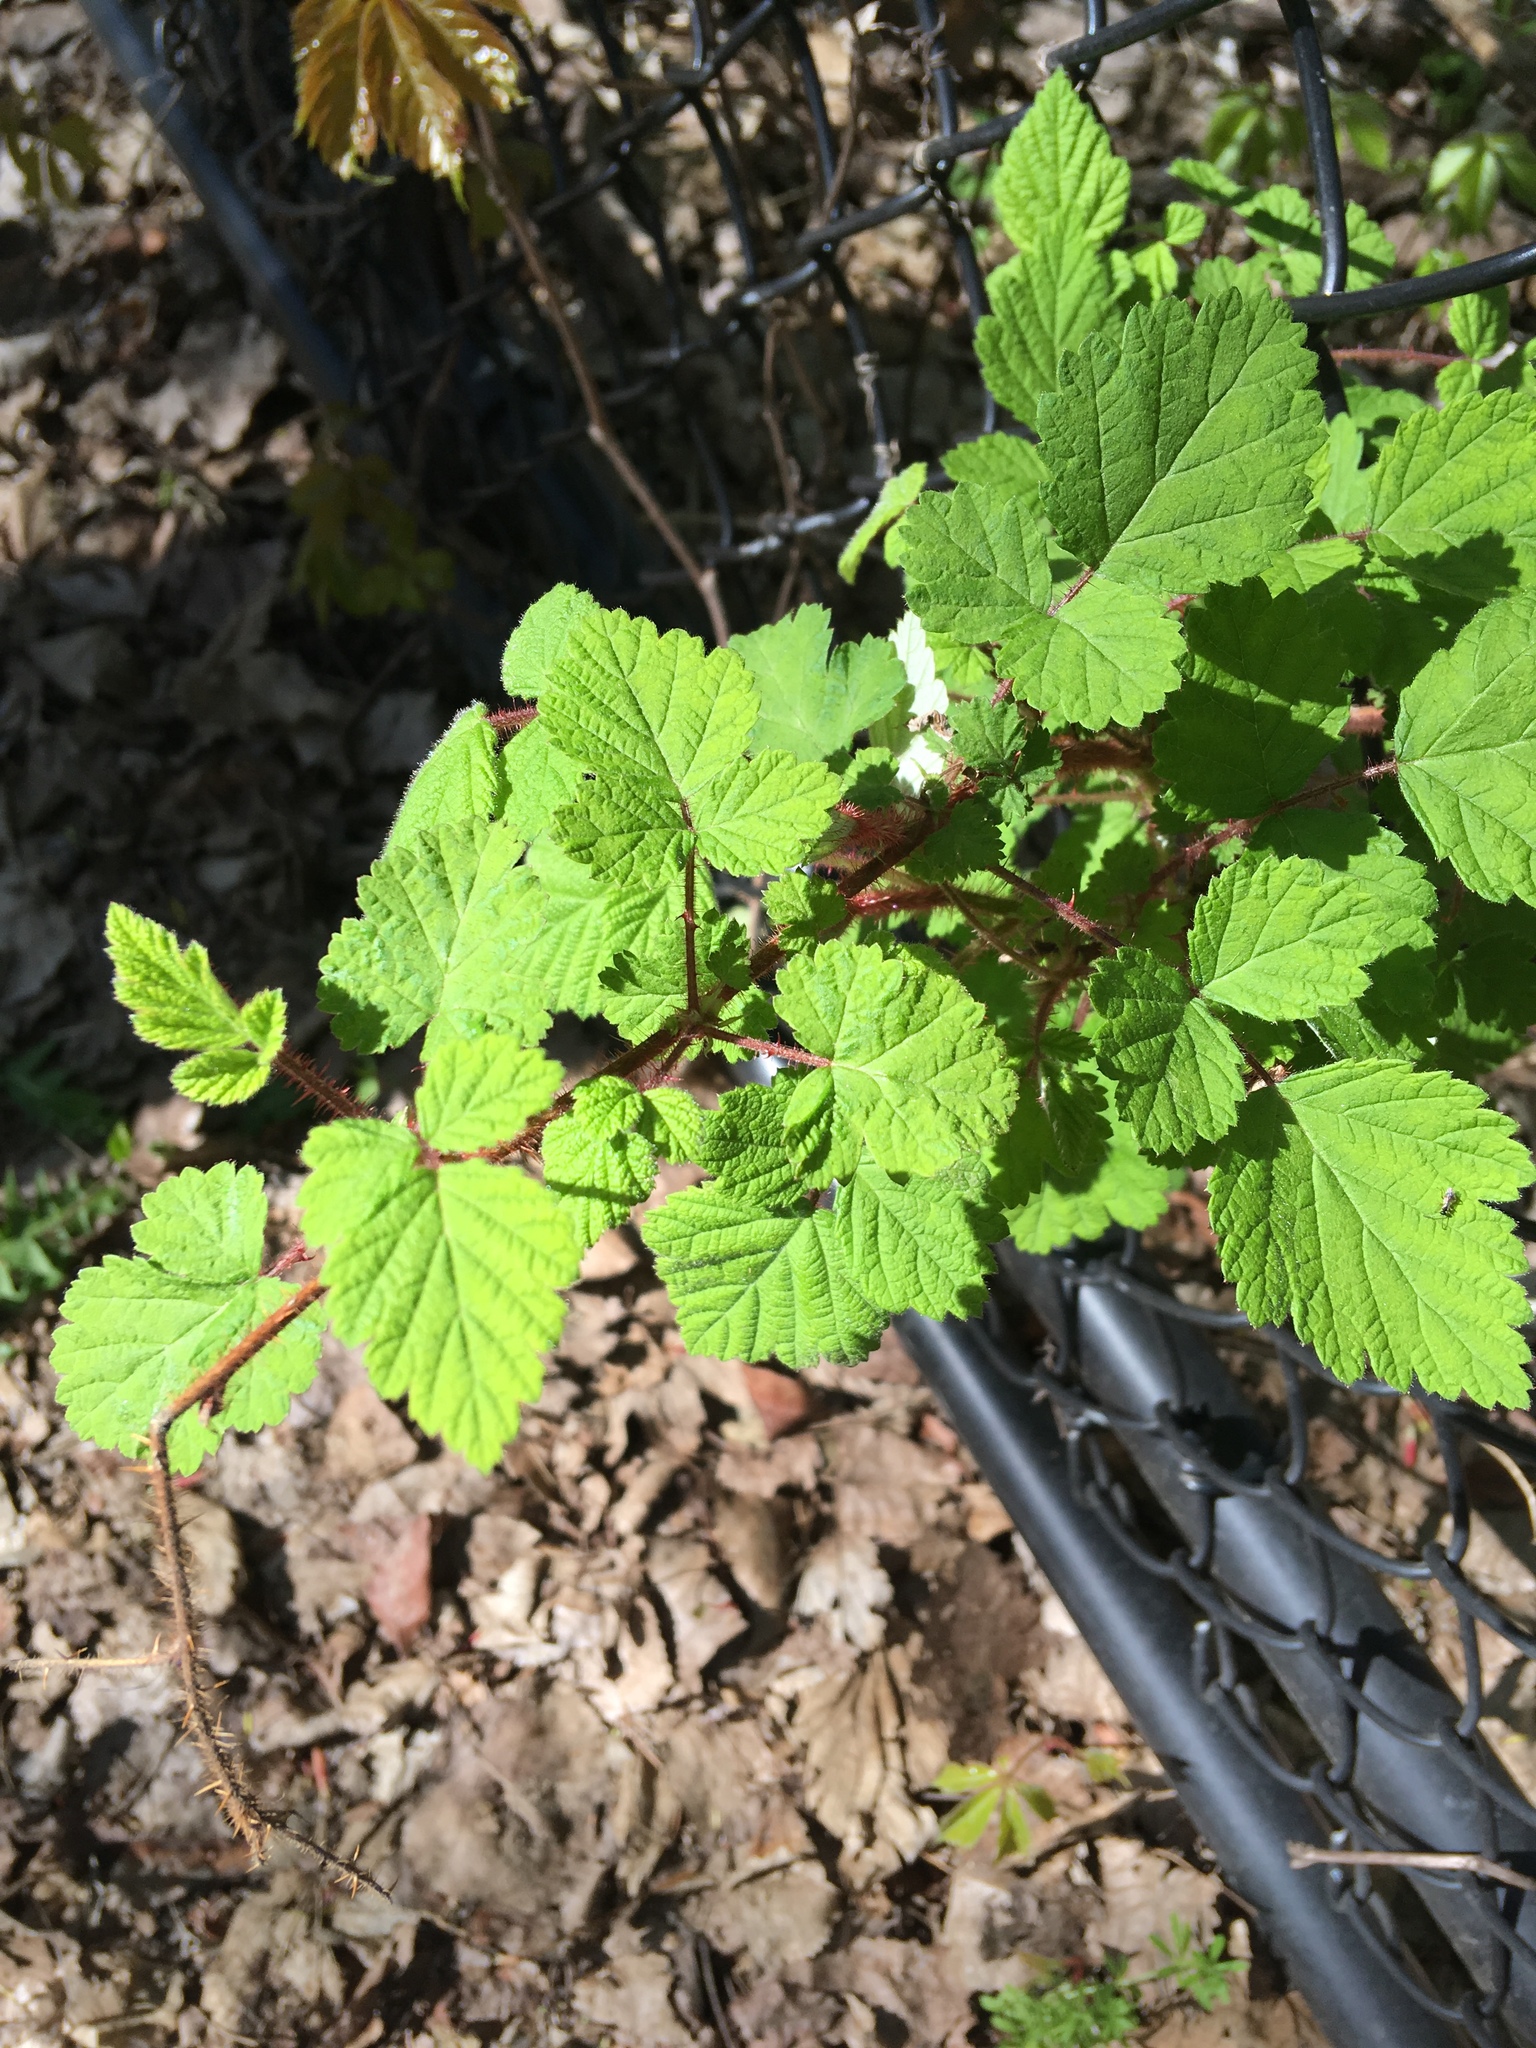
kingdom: Plantae
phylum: Tracheophyta
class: Magnoliopsida
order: Rosales
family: Rosaceae
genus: Rubus
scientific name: Rubus phoenicolasius
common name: Japanese wineberry
